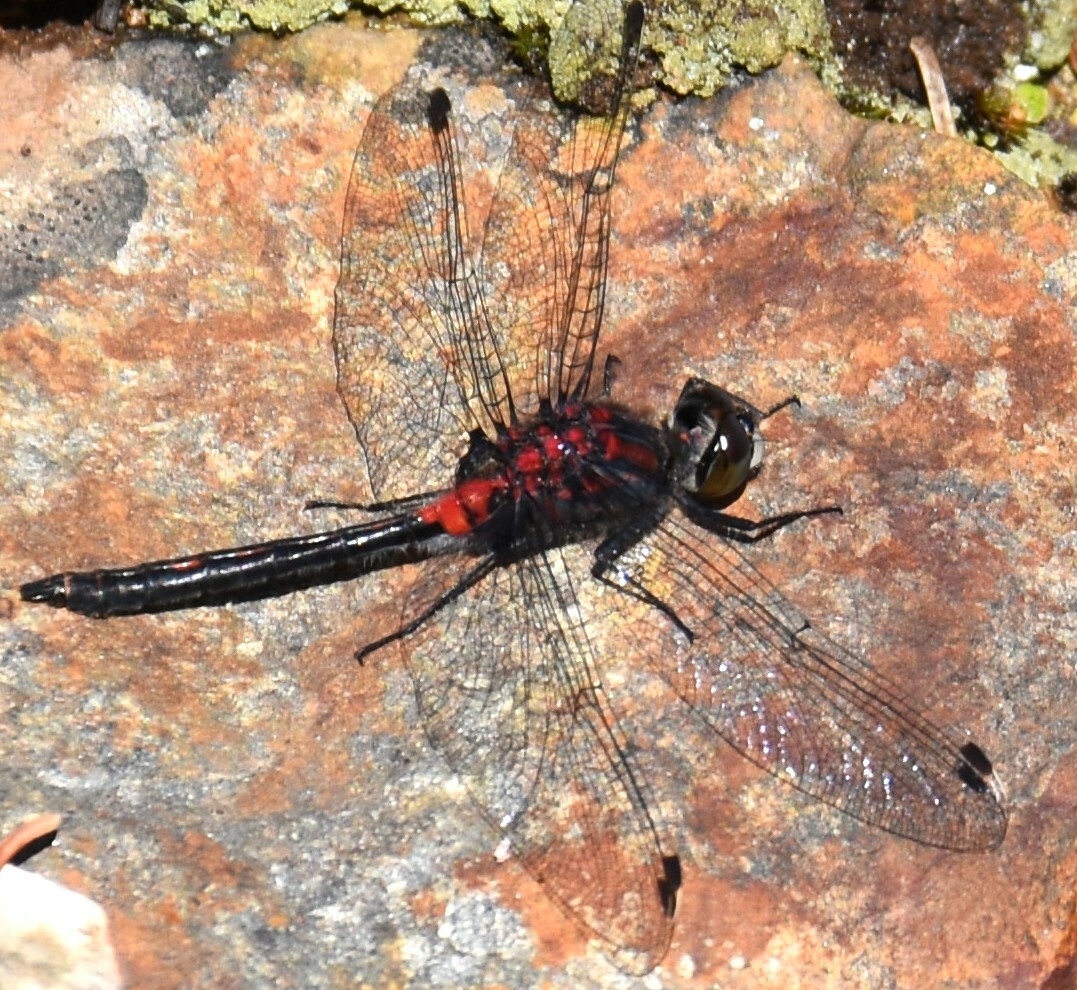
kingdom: Animalia
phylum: Arthropoda
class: Insecta
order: Odonata
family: Libellulidae
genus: Leucorrhinia
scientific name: Leucorrhinia proxima
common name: Belted whiteface
